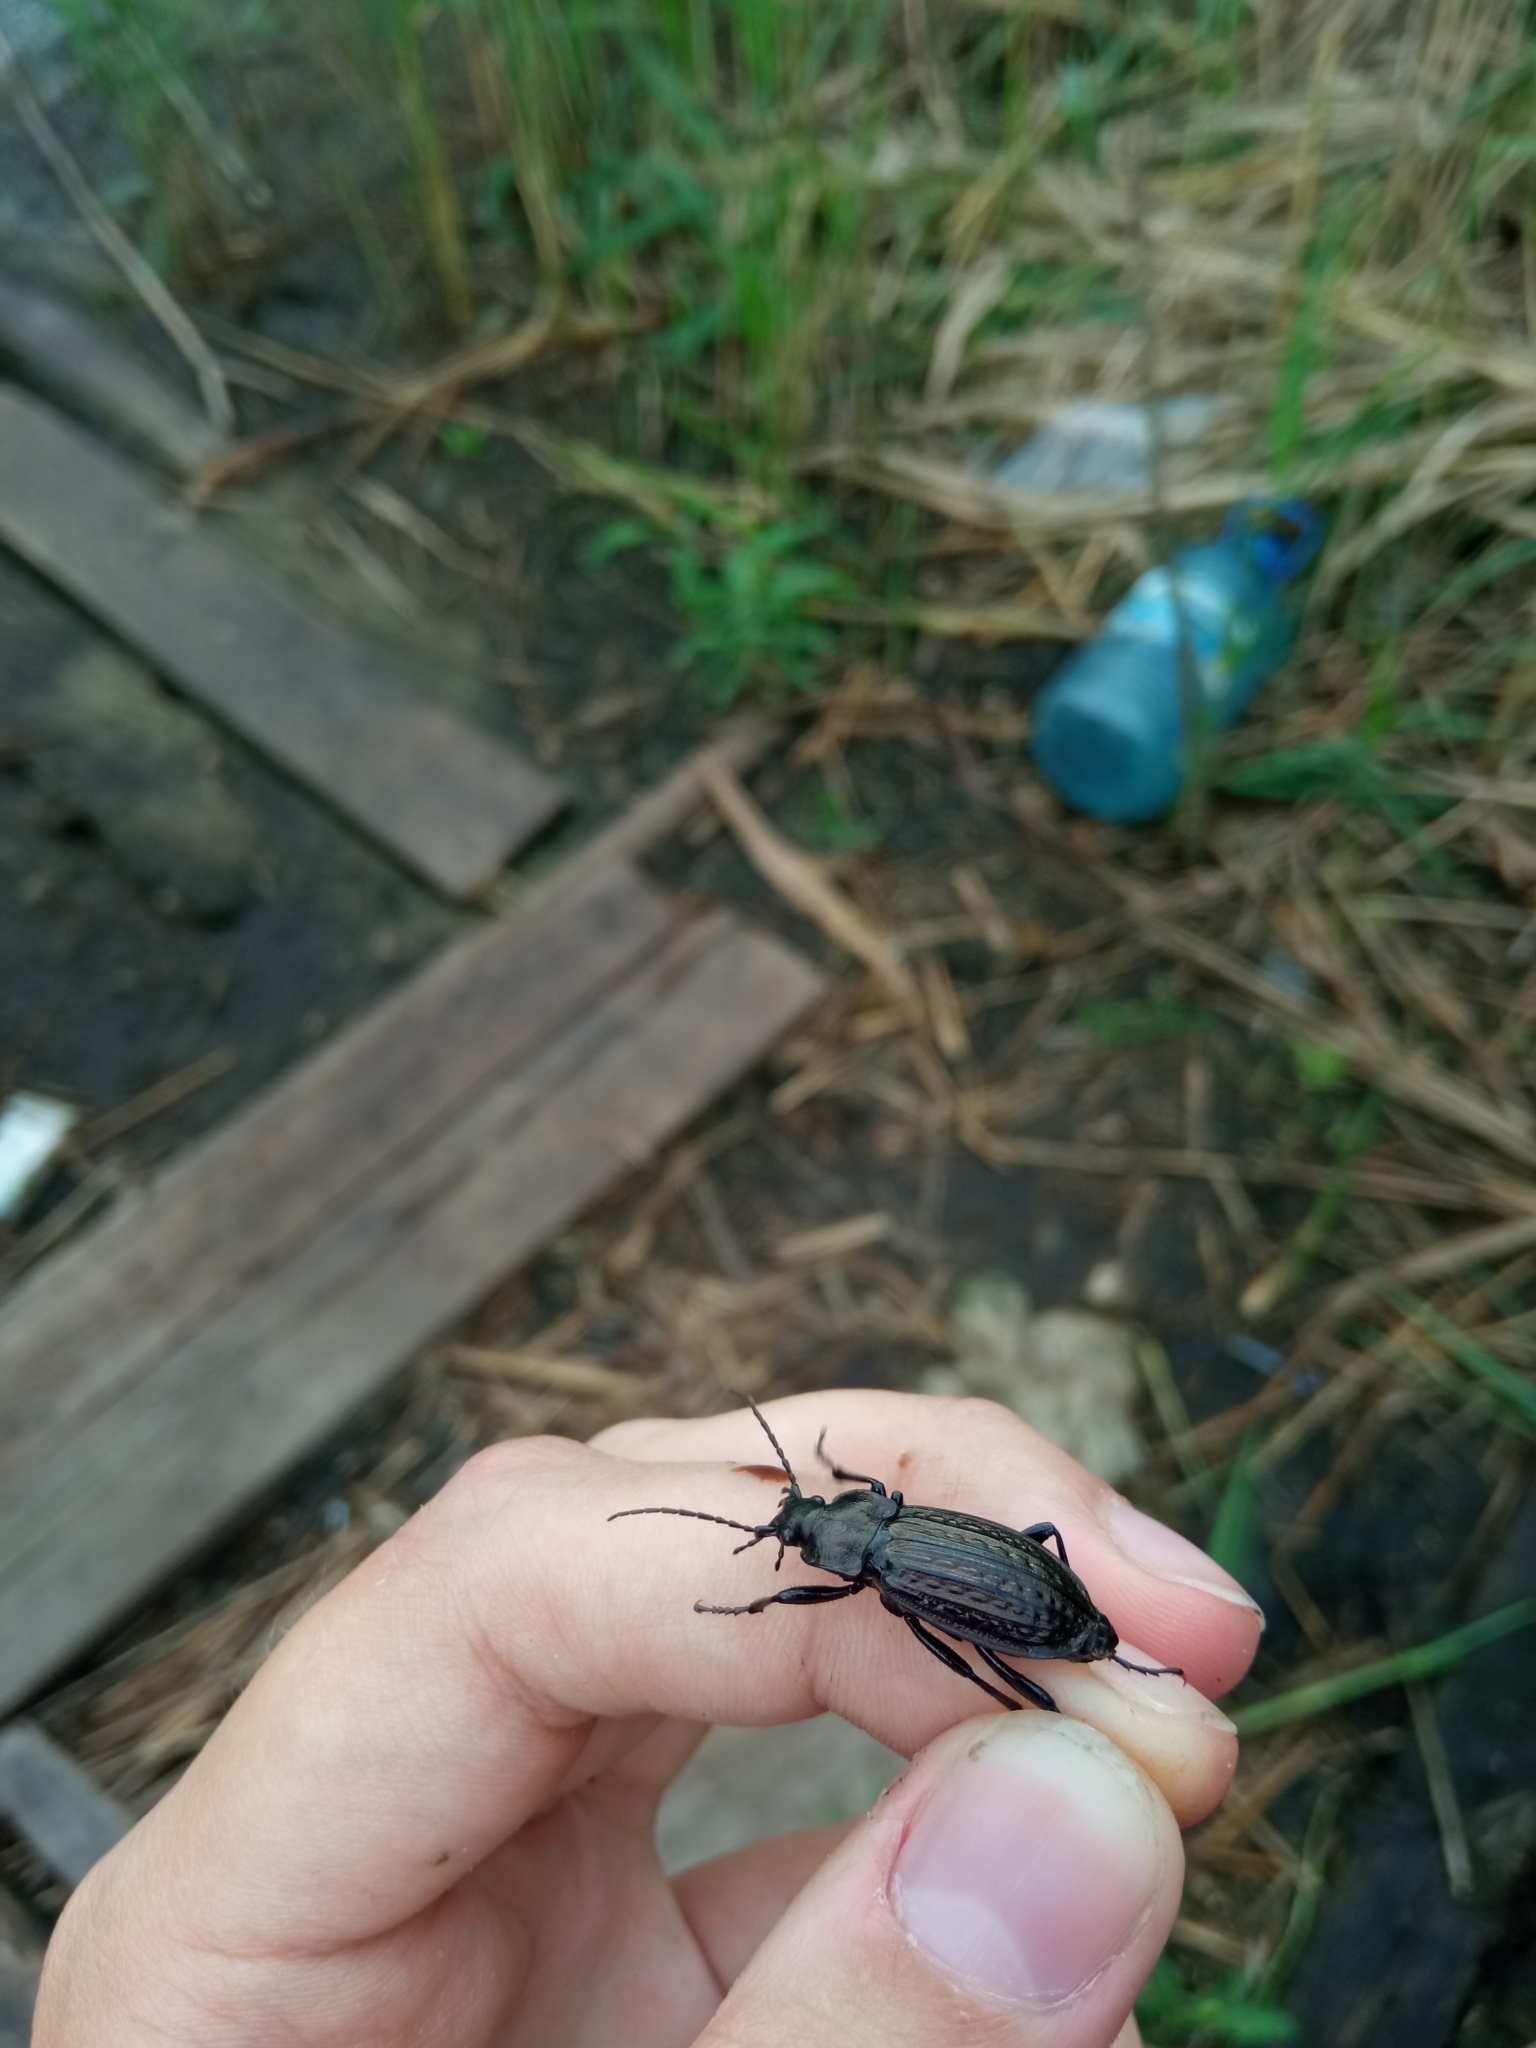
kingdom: Animalia
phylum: Arthropoda
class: Insecta
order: Coleoptera
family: Carabidae
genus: Carabus
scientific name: Carabus granulatus
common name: Granulate ground beetle
